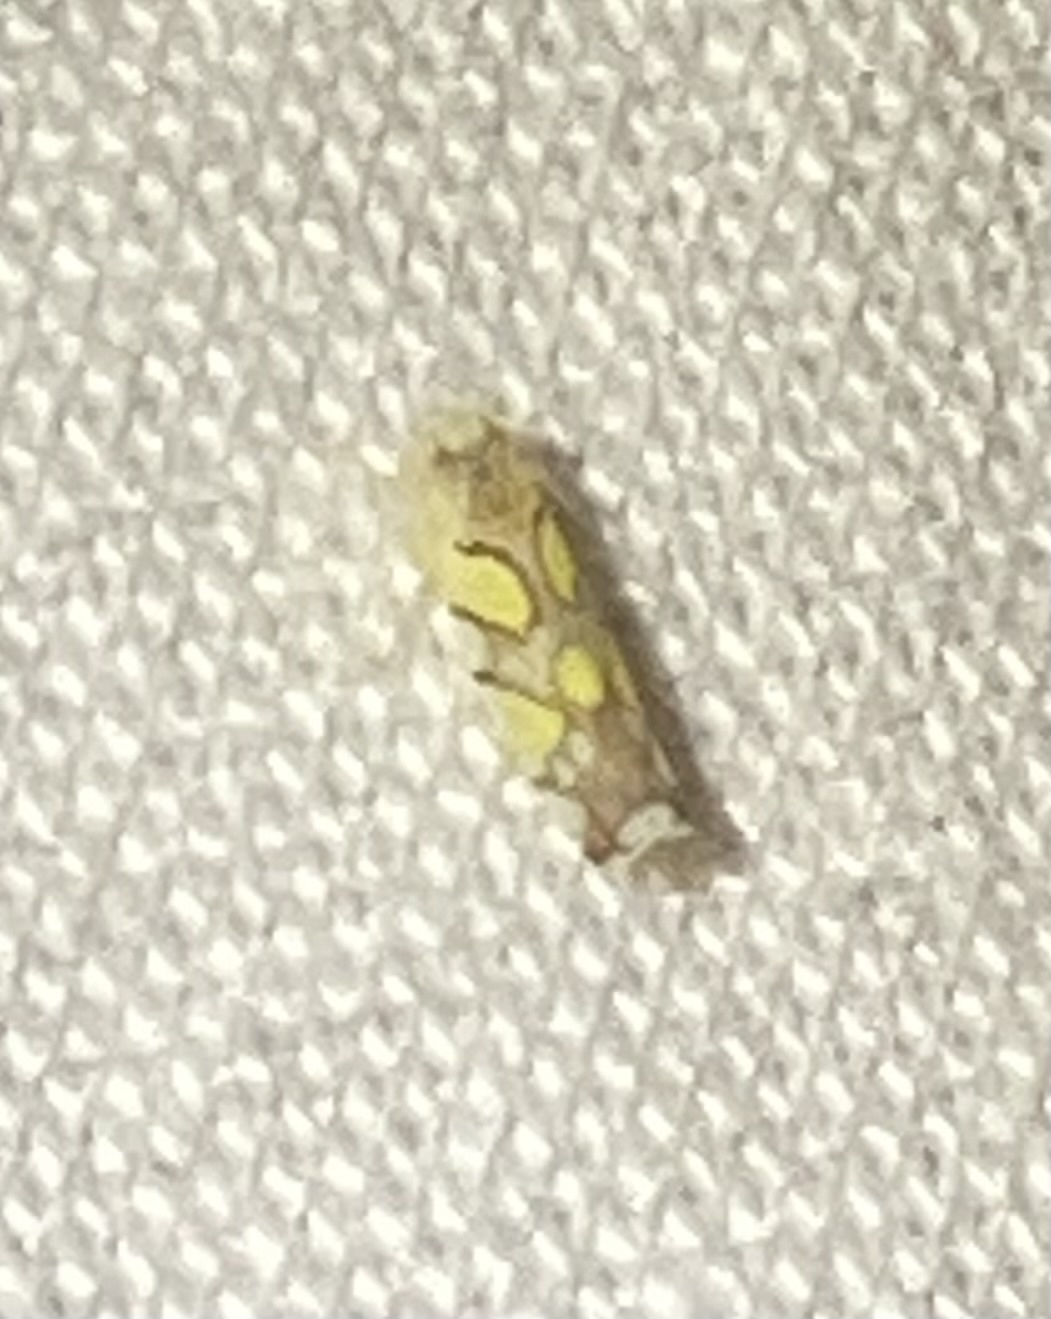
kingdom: Animalia
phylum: Arthropoda
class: Insecta
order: Hemiptera
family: Cicadellidae
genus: Protalebrella
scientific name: Protalebrella brasiliensis
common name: Brasilian leafhopper
